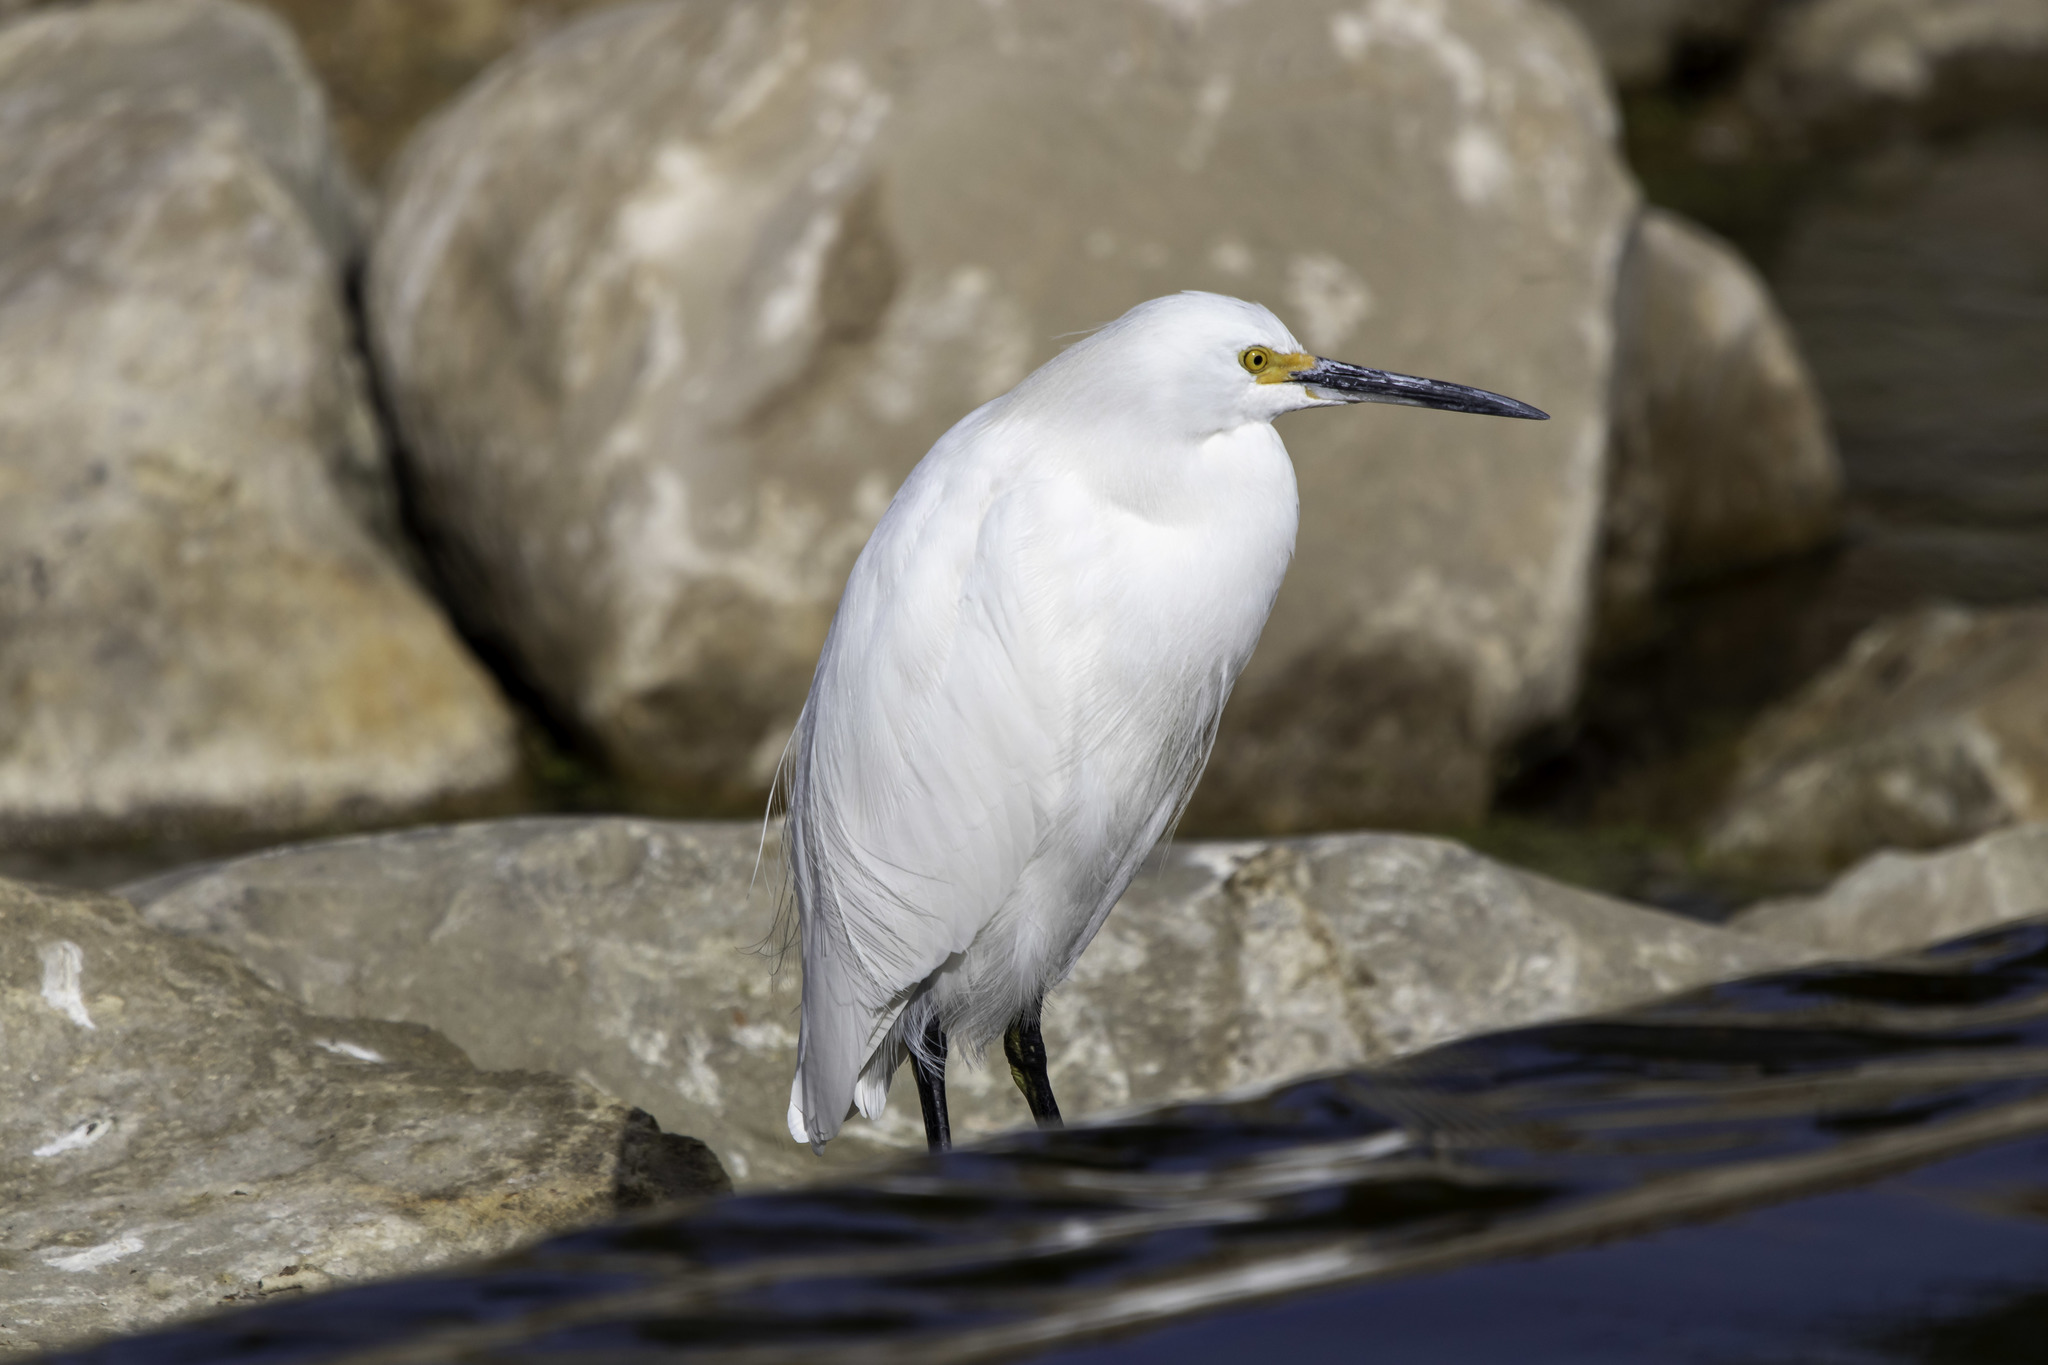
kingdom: Animalia
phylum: Chordata
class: Aves
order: Pelecaniformes
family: Ardeidae
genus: Egretta
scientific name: Egretta thula
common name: Snowy egret
